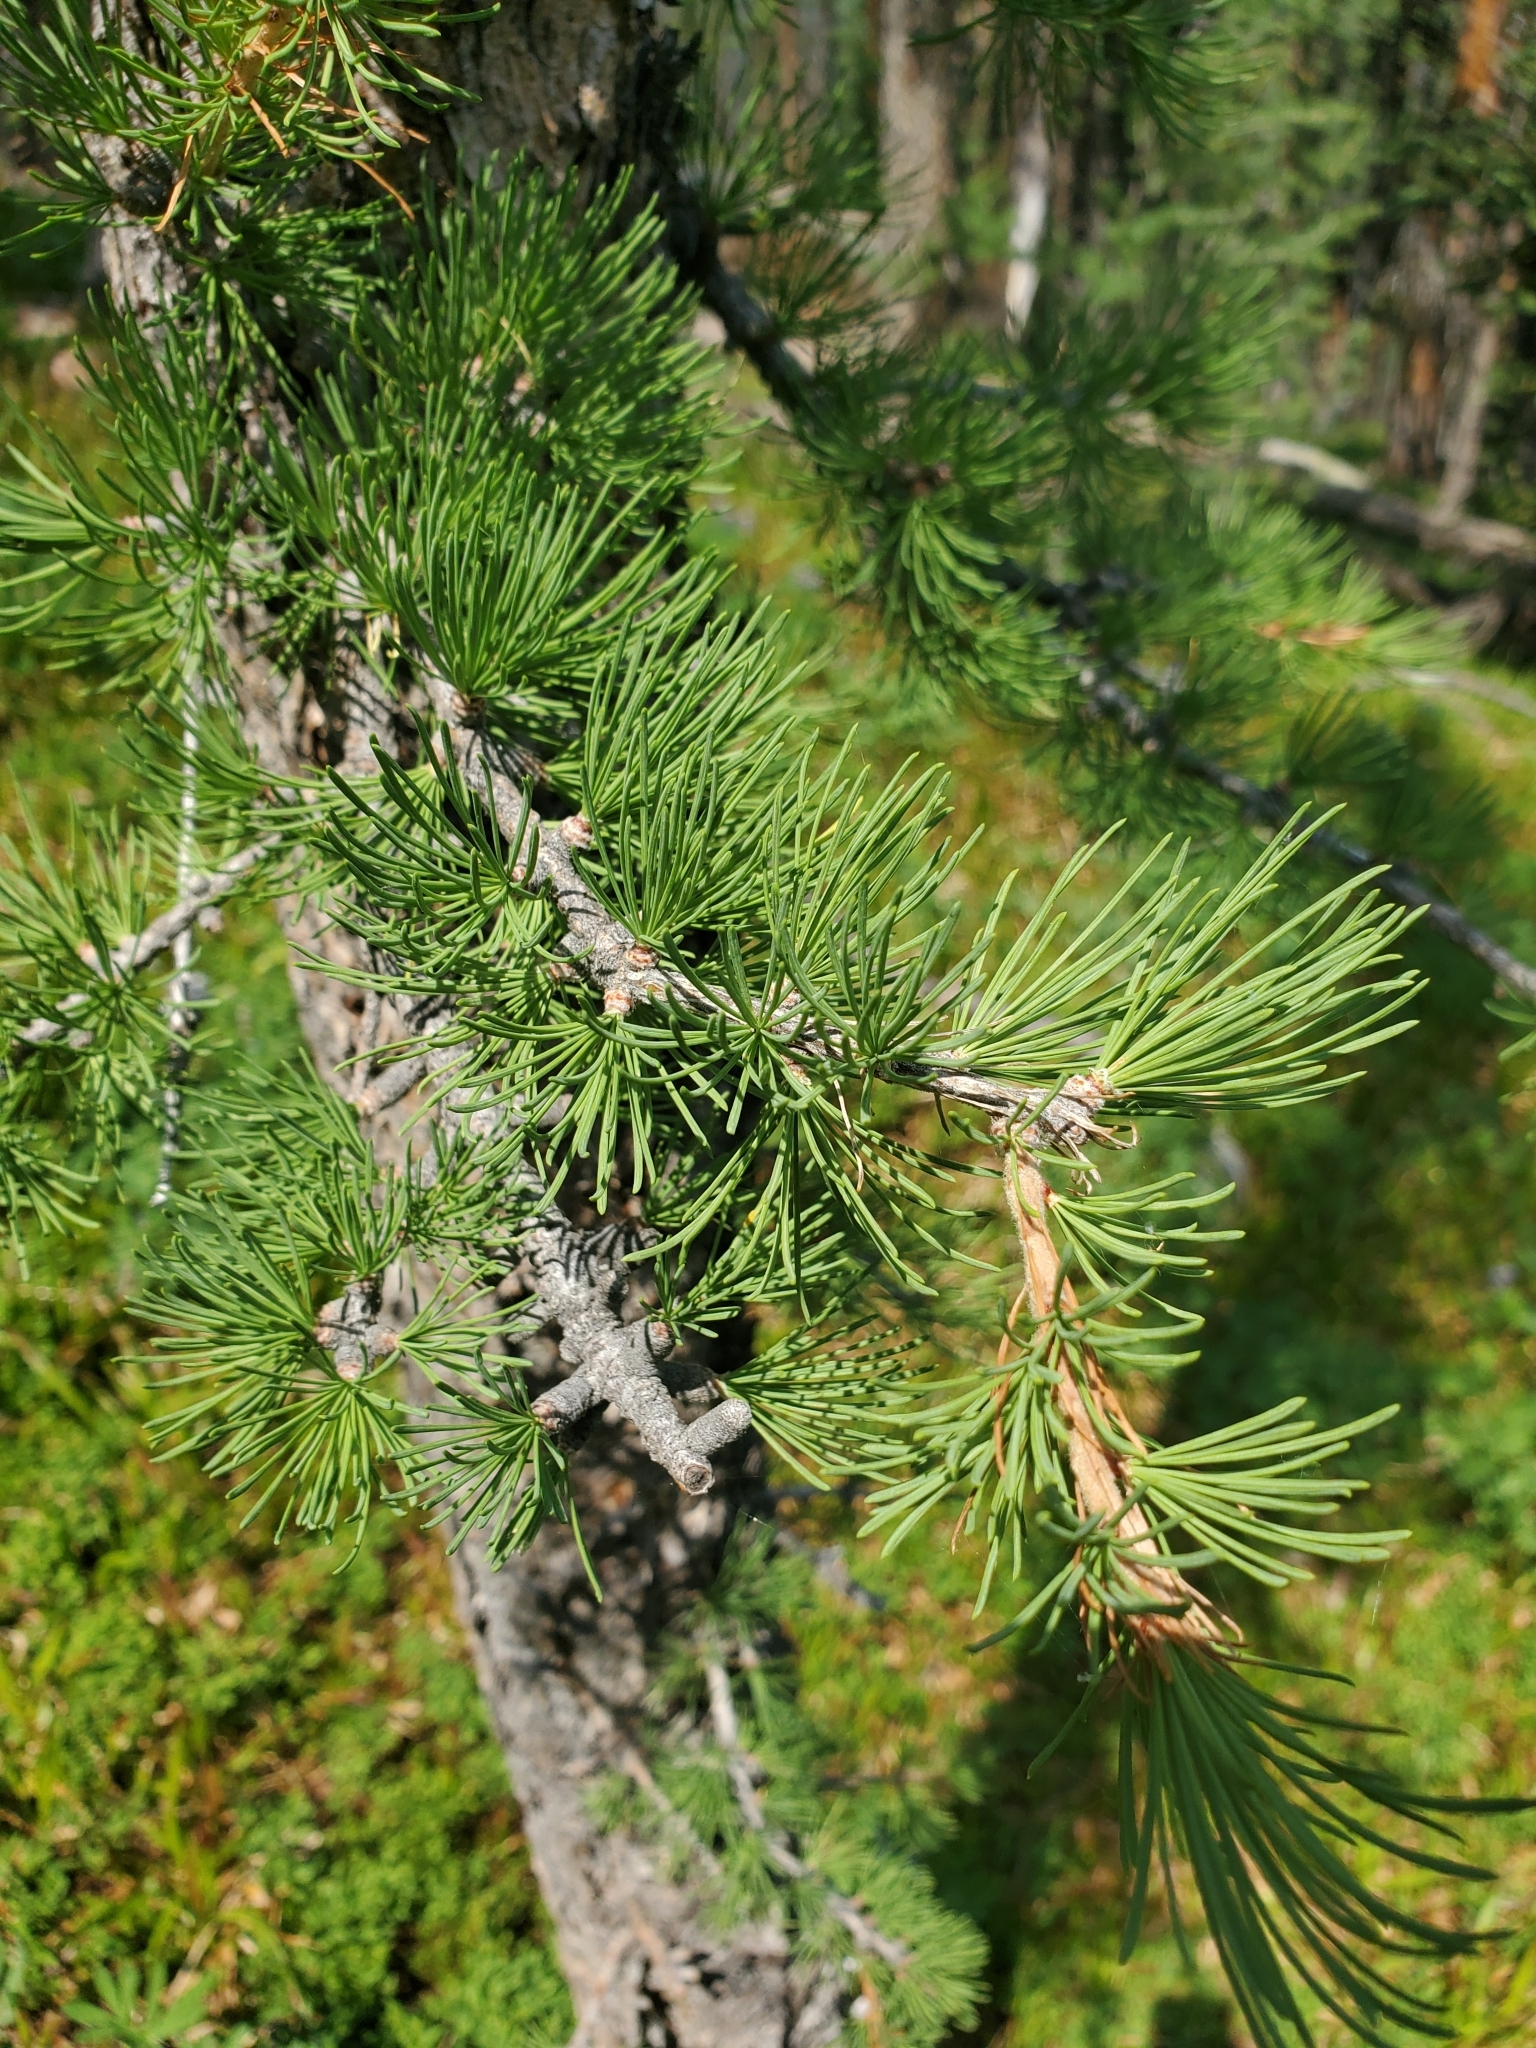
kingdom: Plantae
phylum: Tracheophyta
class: Pinopsida
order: Pinales
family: Pinaceae
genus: Larix
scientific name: Larix lyallii
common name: Alpine larch
